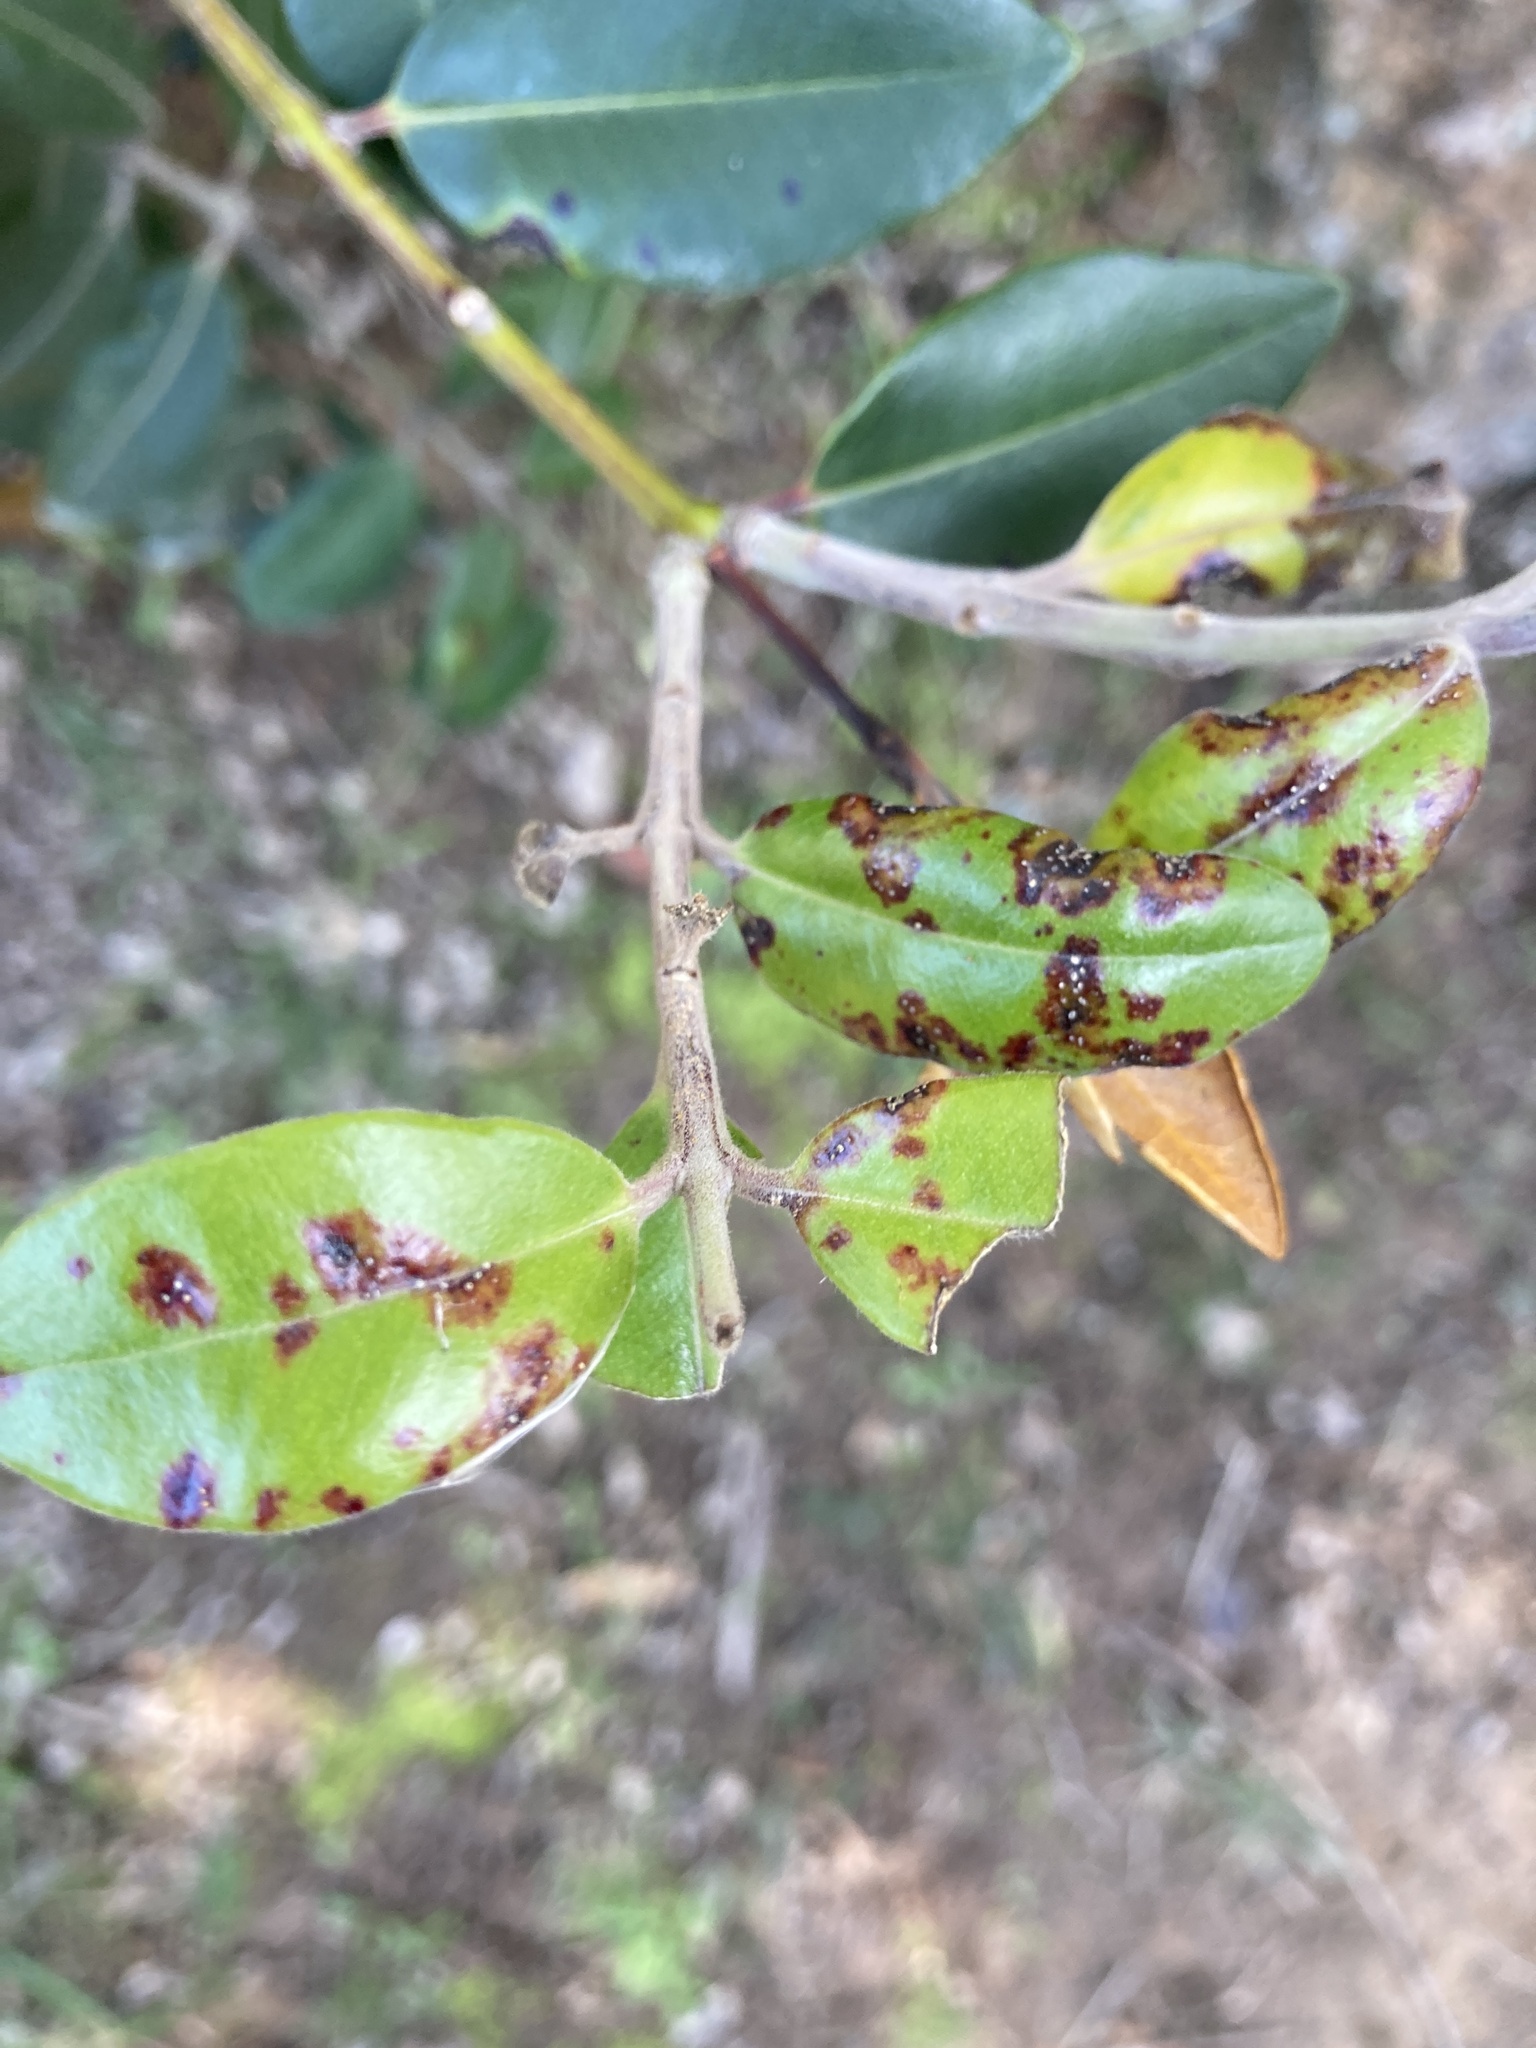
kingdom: Fungi
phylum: Basidiomycota
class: Pucciniomycetes
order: Pucciniales
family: Sphaerophragmiaceae
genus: Austropuccinia
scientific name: Austropuccinia psidii
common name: Myrtle rust
